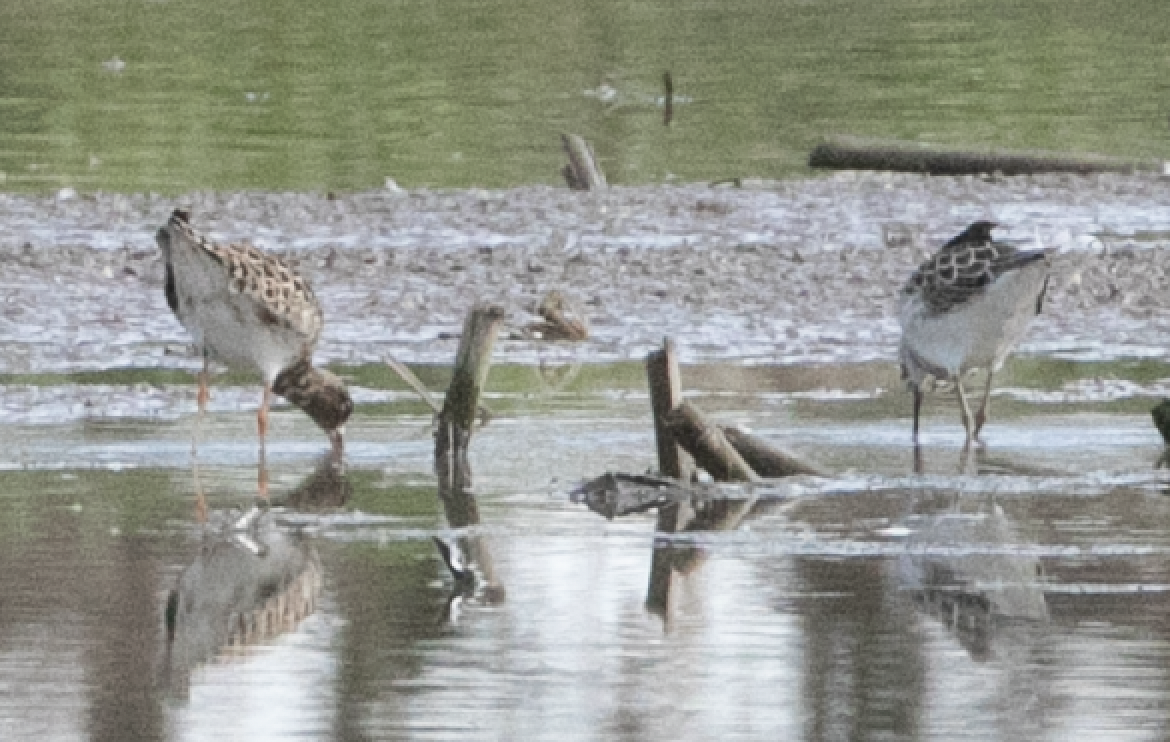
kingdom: Animalia
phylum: Chordata
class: Aves
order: Charadriiformes
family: Scolopacidae
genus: Calidris
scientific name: Calidris pugnax
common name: Ruff
